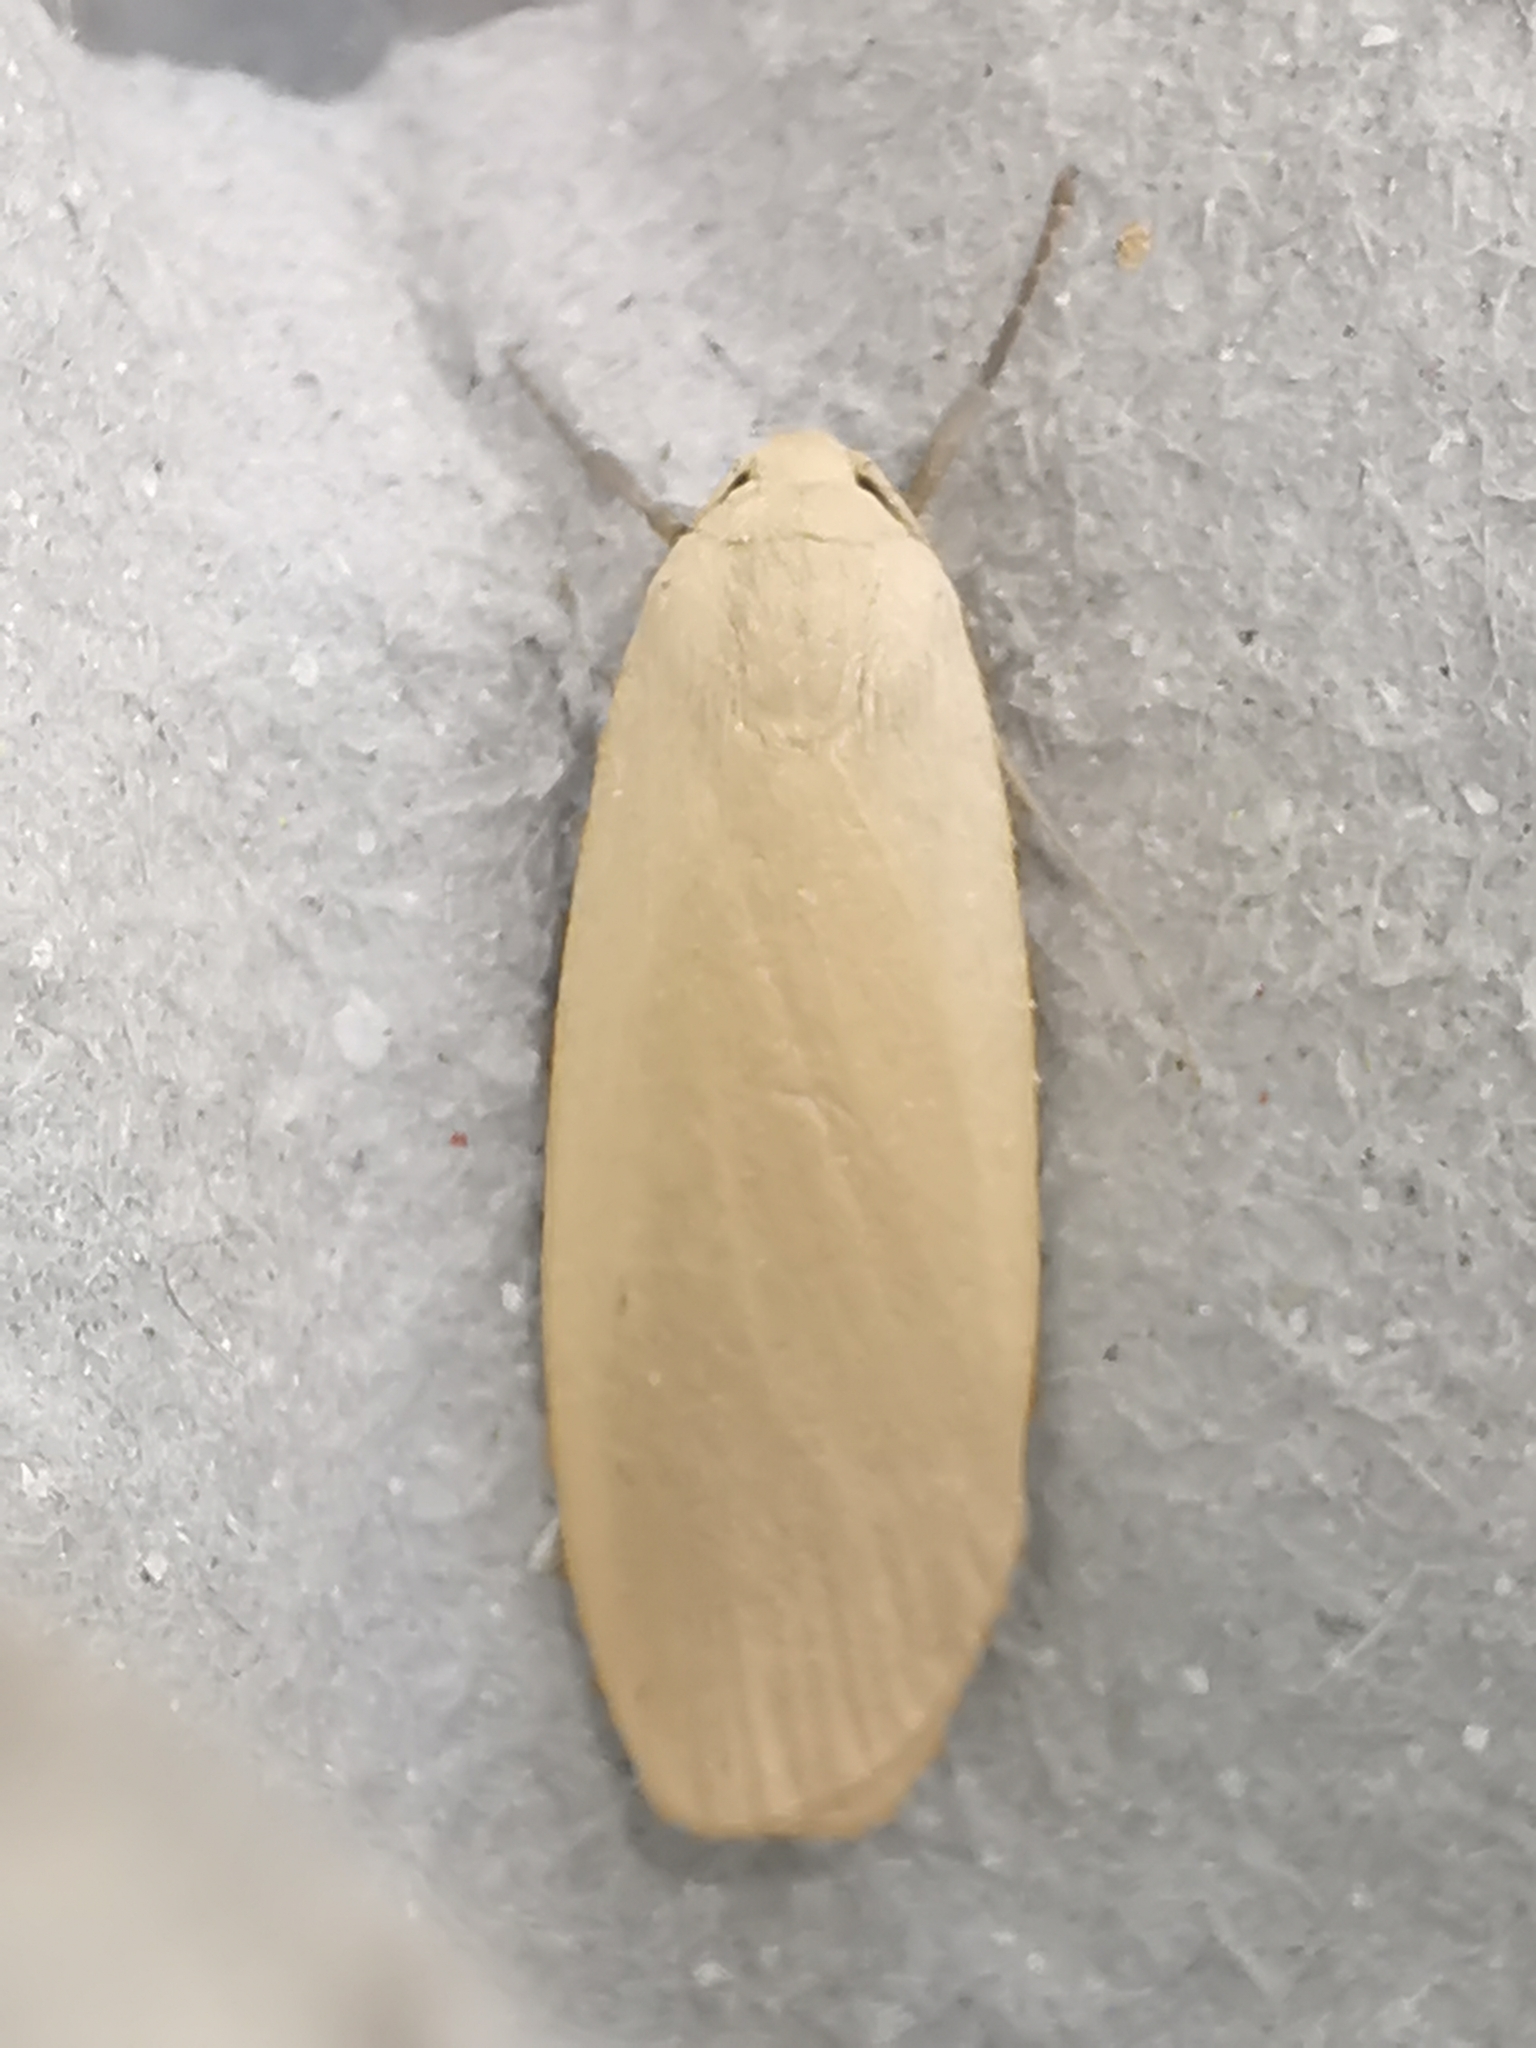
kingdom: Animalia
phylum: Arthropoda
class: Insecta
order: Lepidoptera
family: Erebidae
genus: Collita
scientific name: Collita griseola
